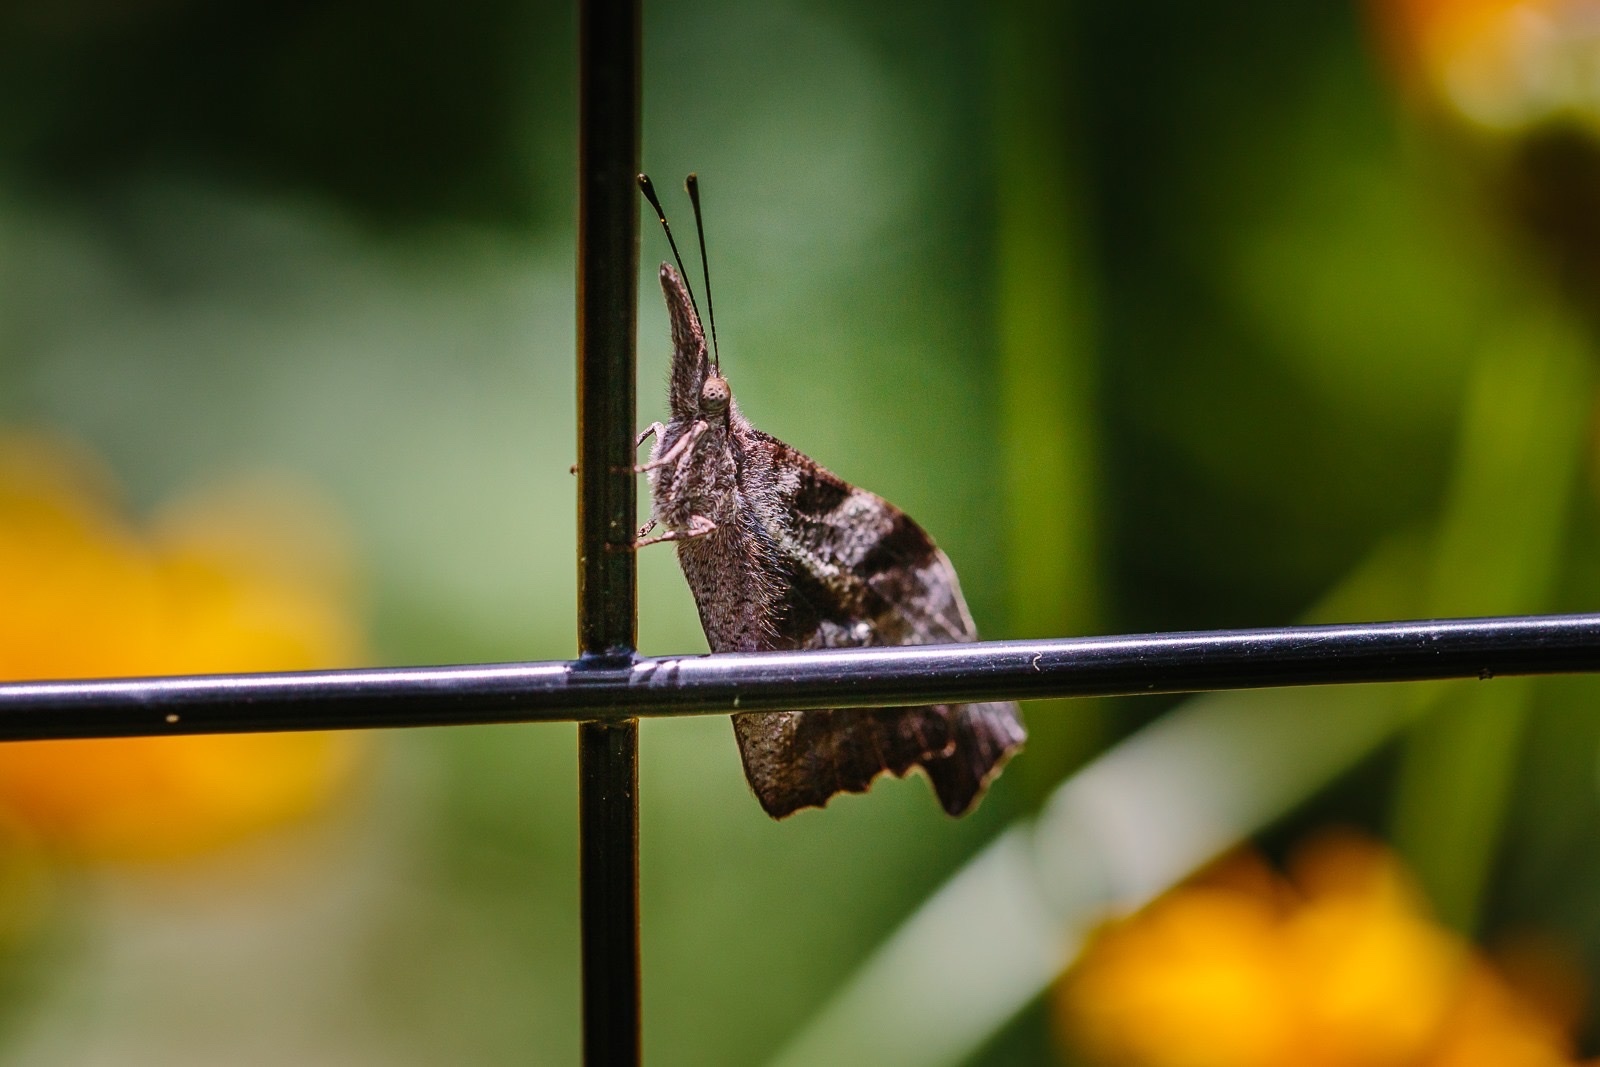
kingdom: Animalia
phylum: Arthropoda
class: Insecta
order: Lepidoptera
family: Nymphalidae
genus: Libytheana
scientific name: Libytheana carinenta
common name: American snout
